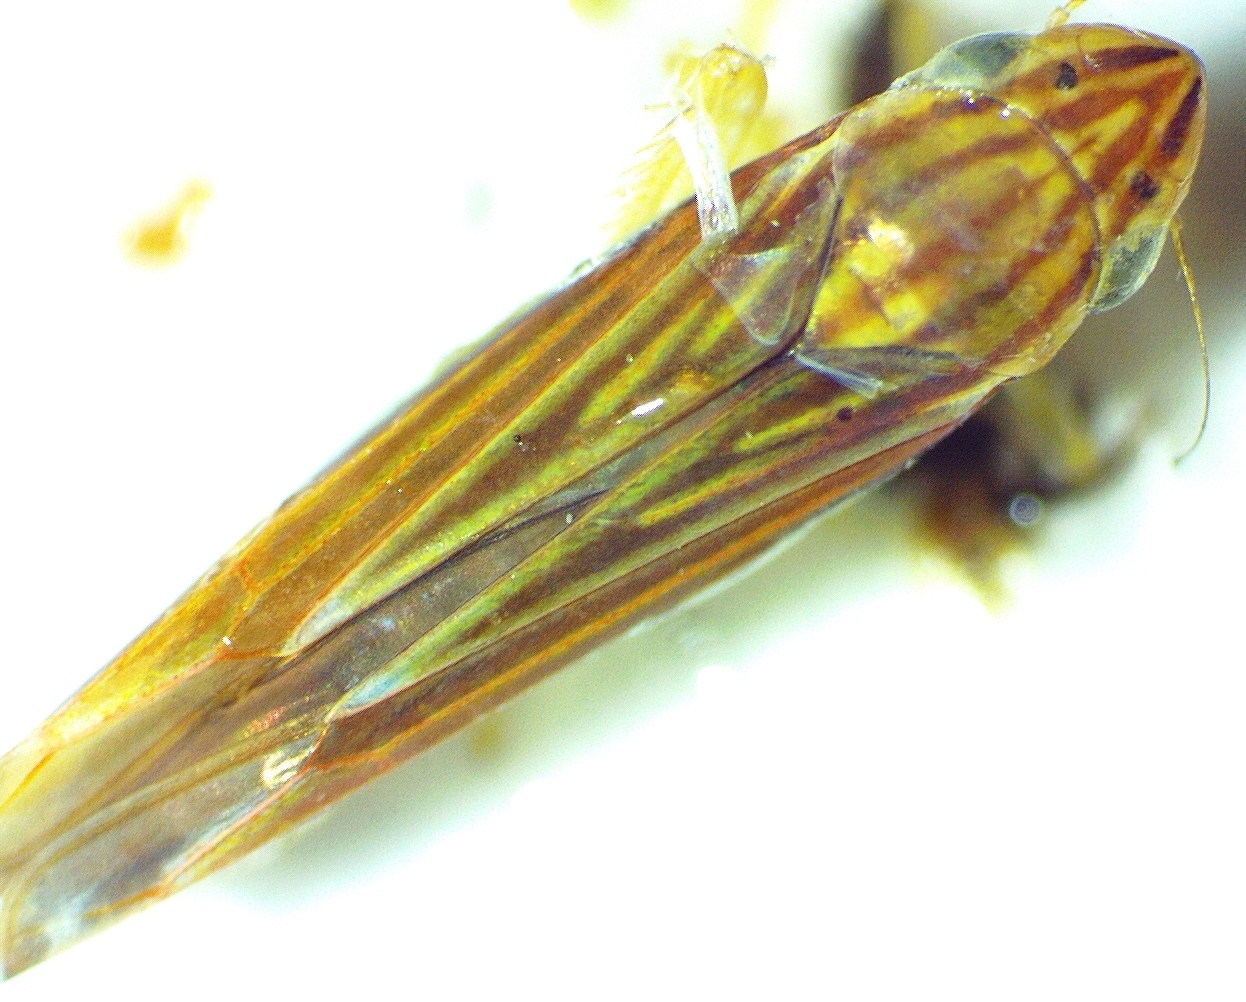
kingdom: Animalia
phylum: Arthropoda
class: Insecta
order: Hemiptera
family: Cicadellidae
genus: Sibovia
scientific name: Sibovia occatoria
